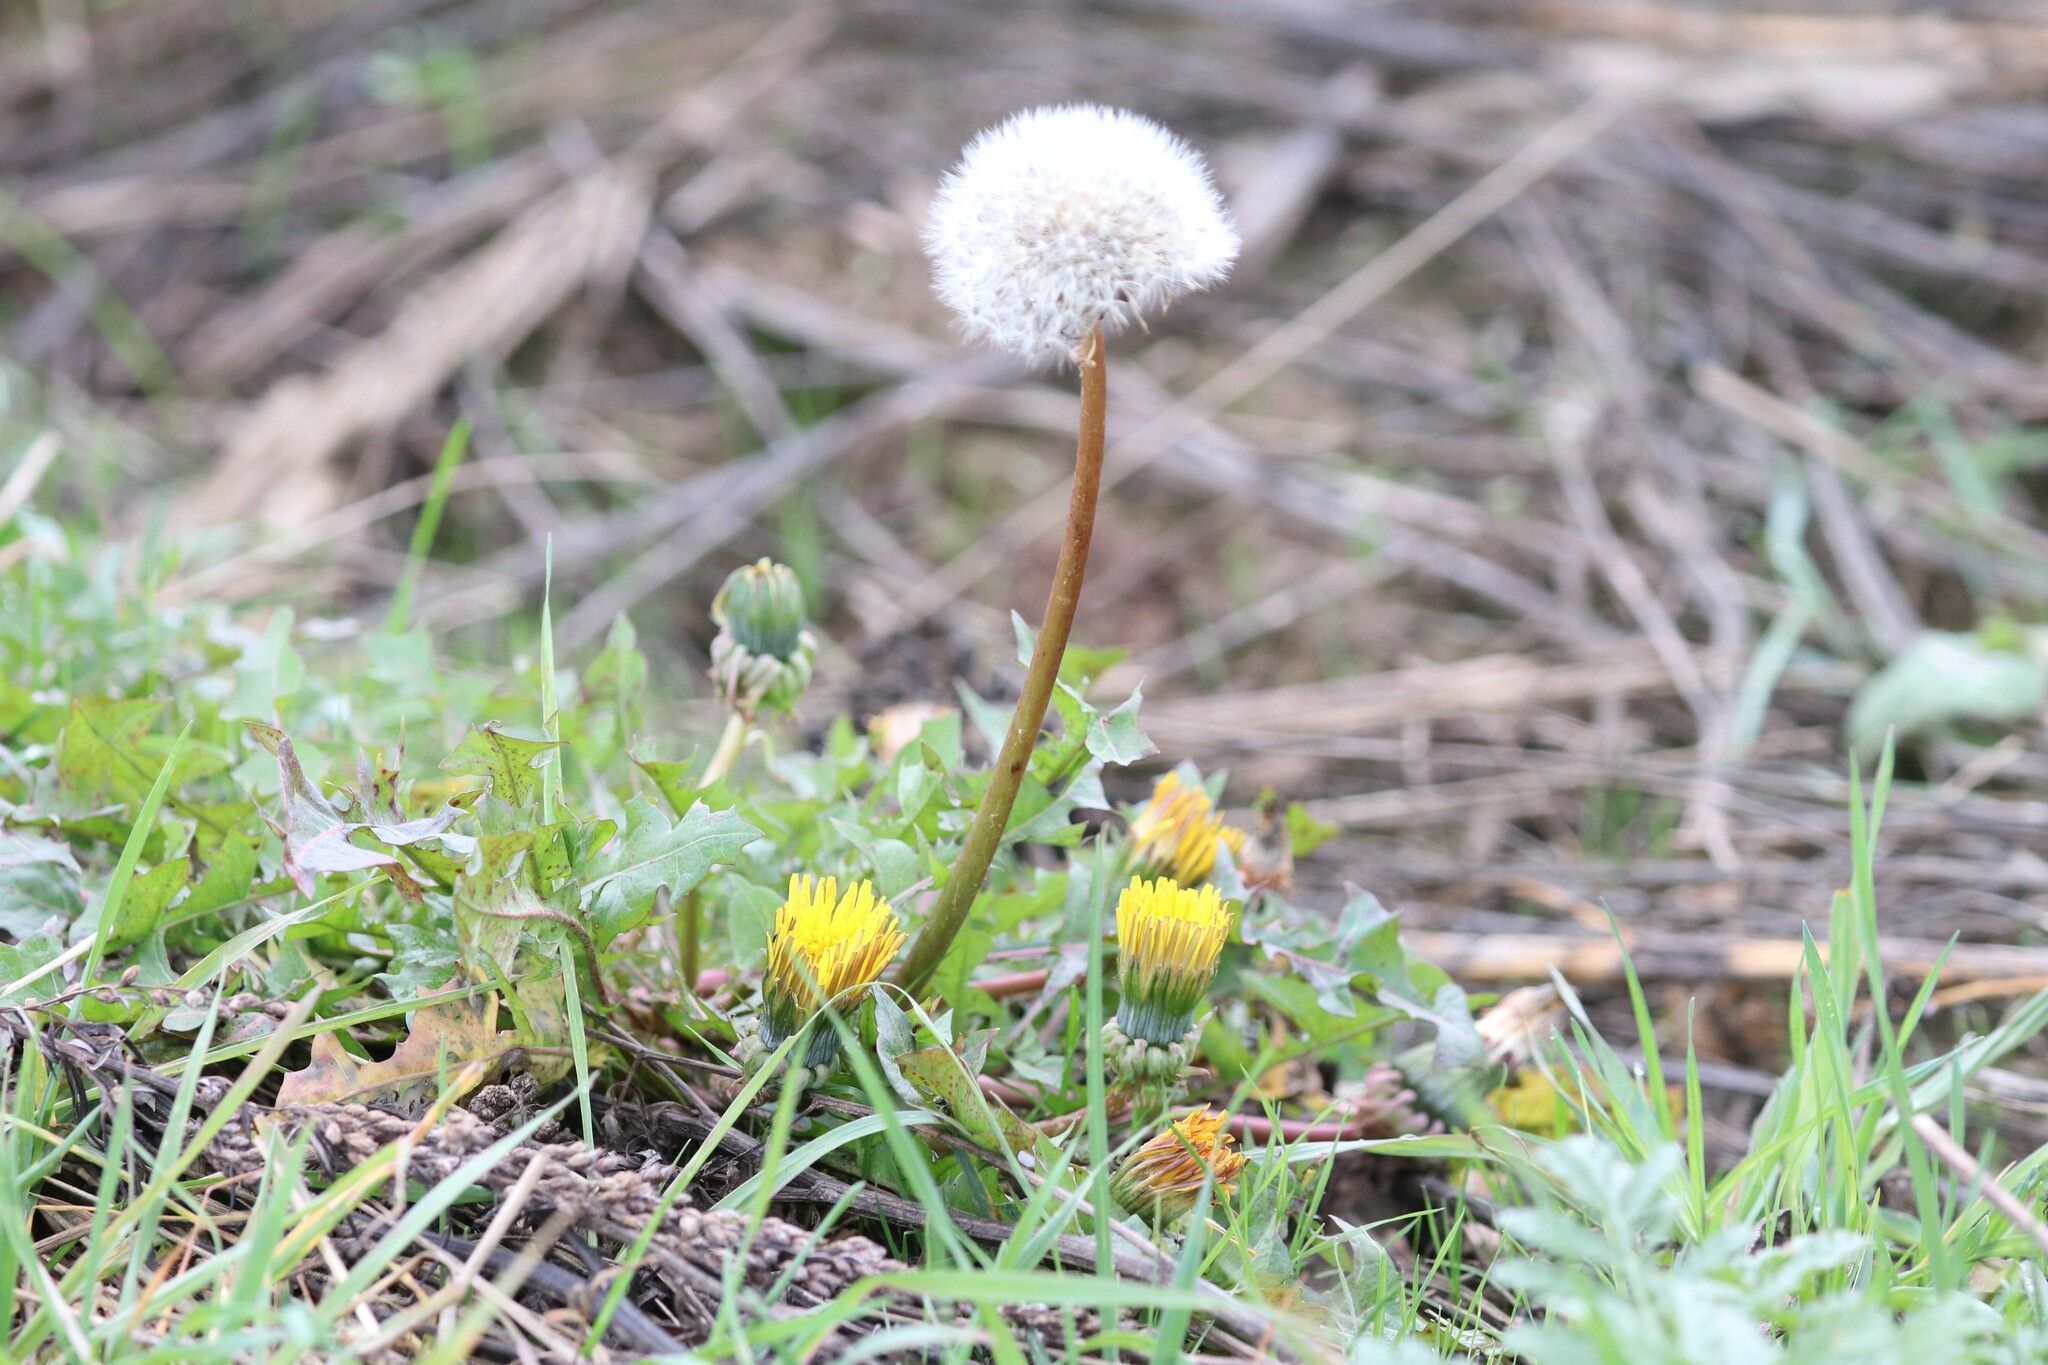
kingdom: Plantae
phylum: Tracheophyta
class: Magnoliopsida
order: Asterales
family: Asteraceae
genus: Taraxacum
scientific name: Taraxacum officinale
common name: Common dandelion
